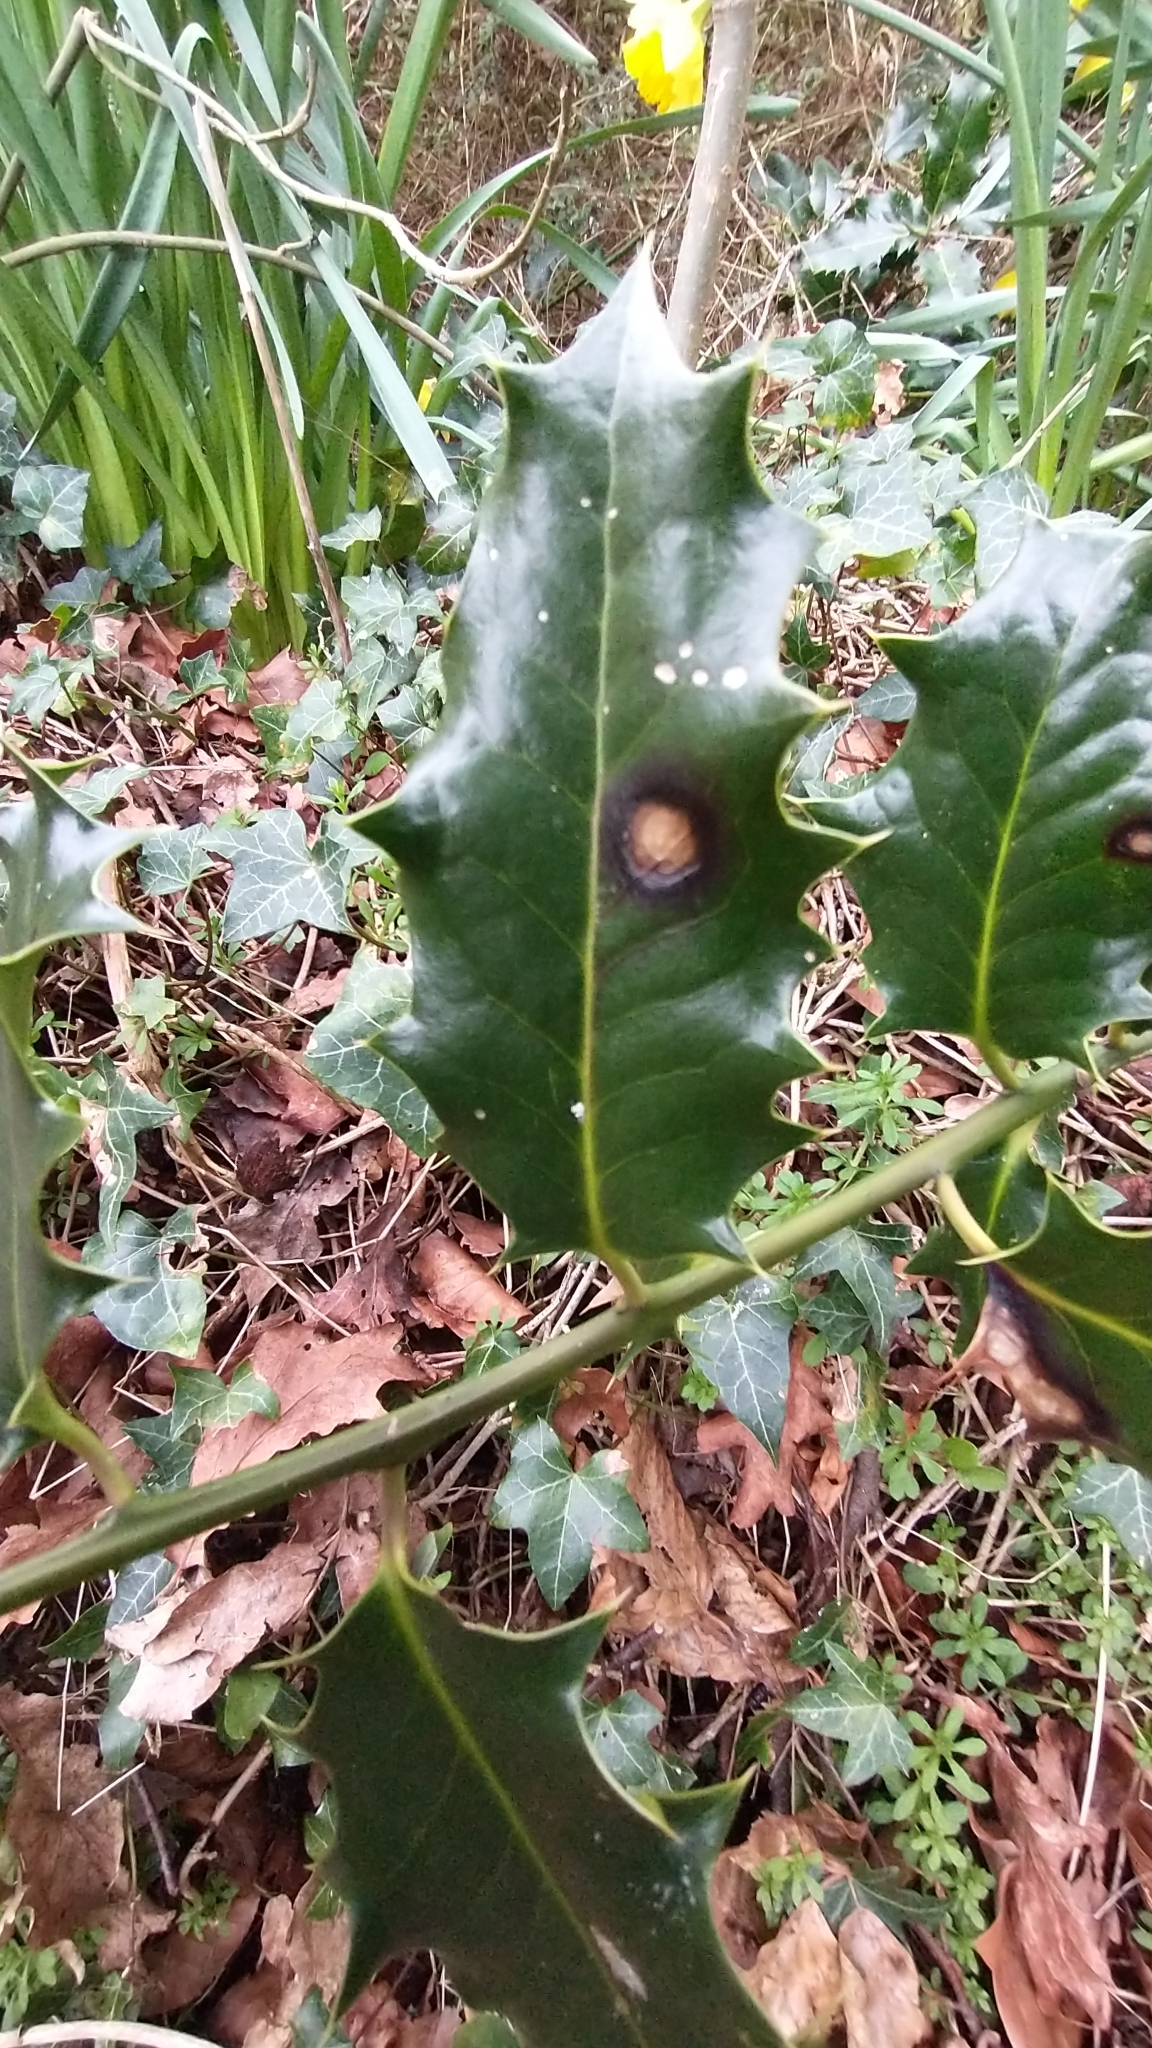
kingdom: Animalia
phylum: Arthropoda
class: Insecta
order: Diptera
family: Agromyzidae
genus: Phytomyza
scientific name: Phytomyza ilicis
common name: Holly leafminer
